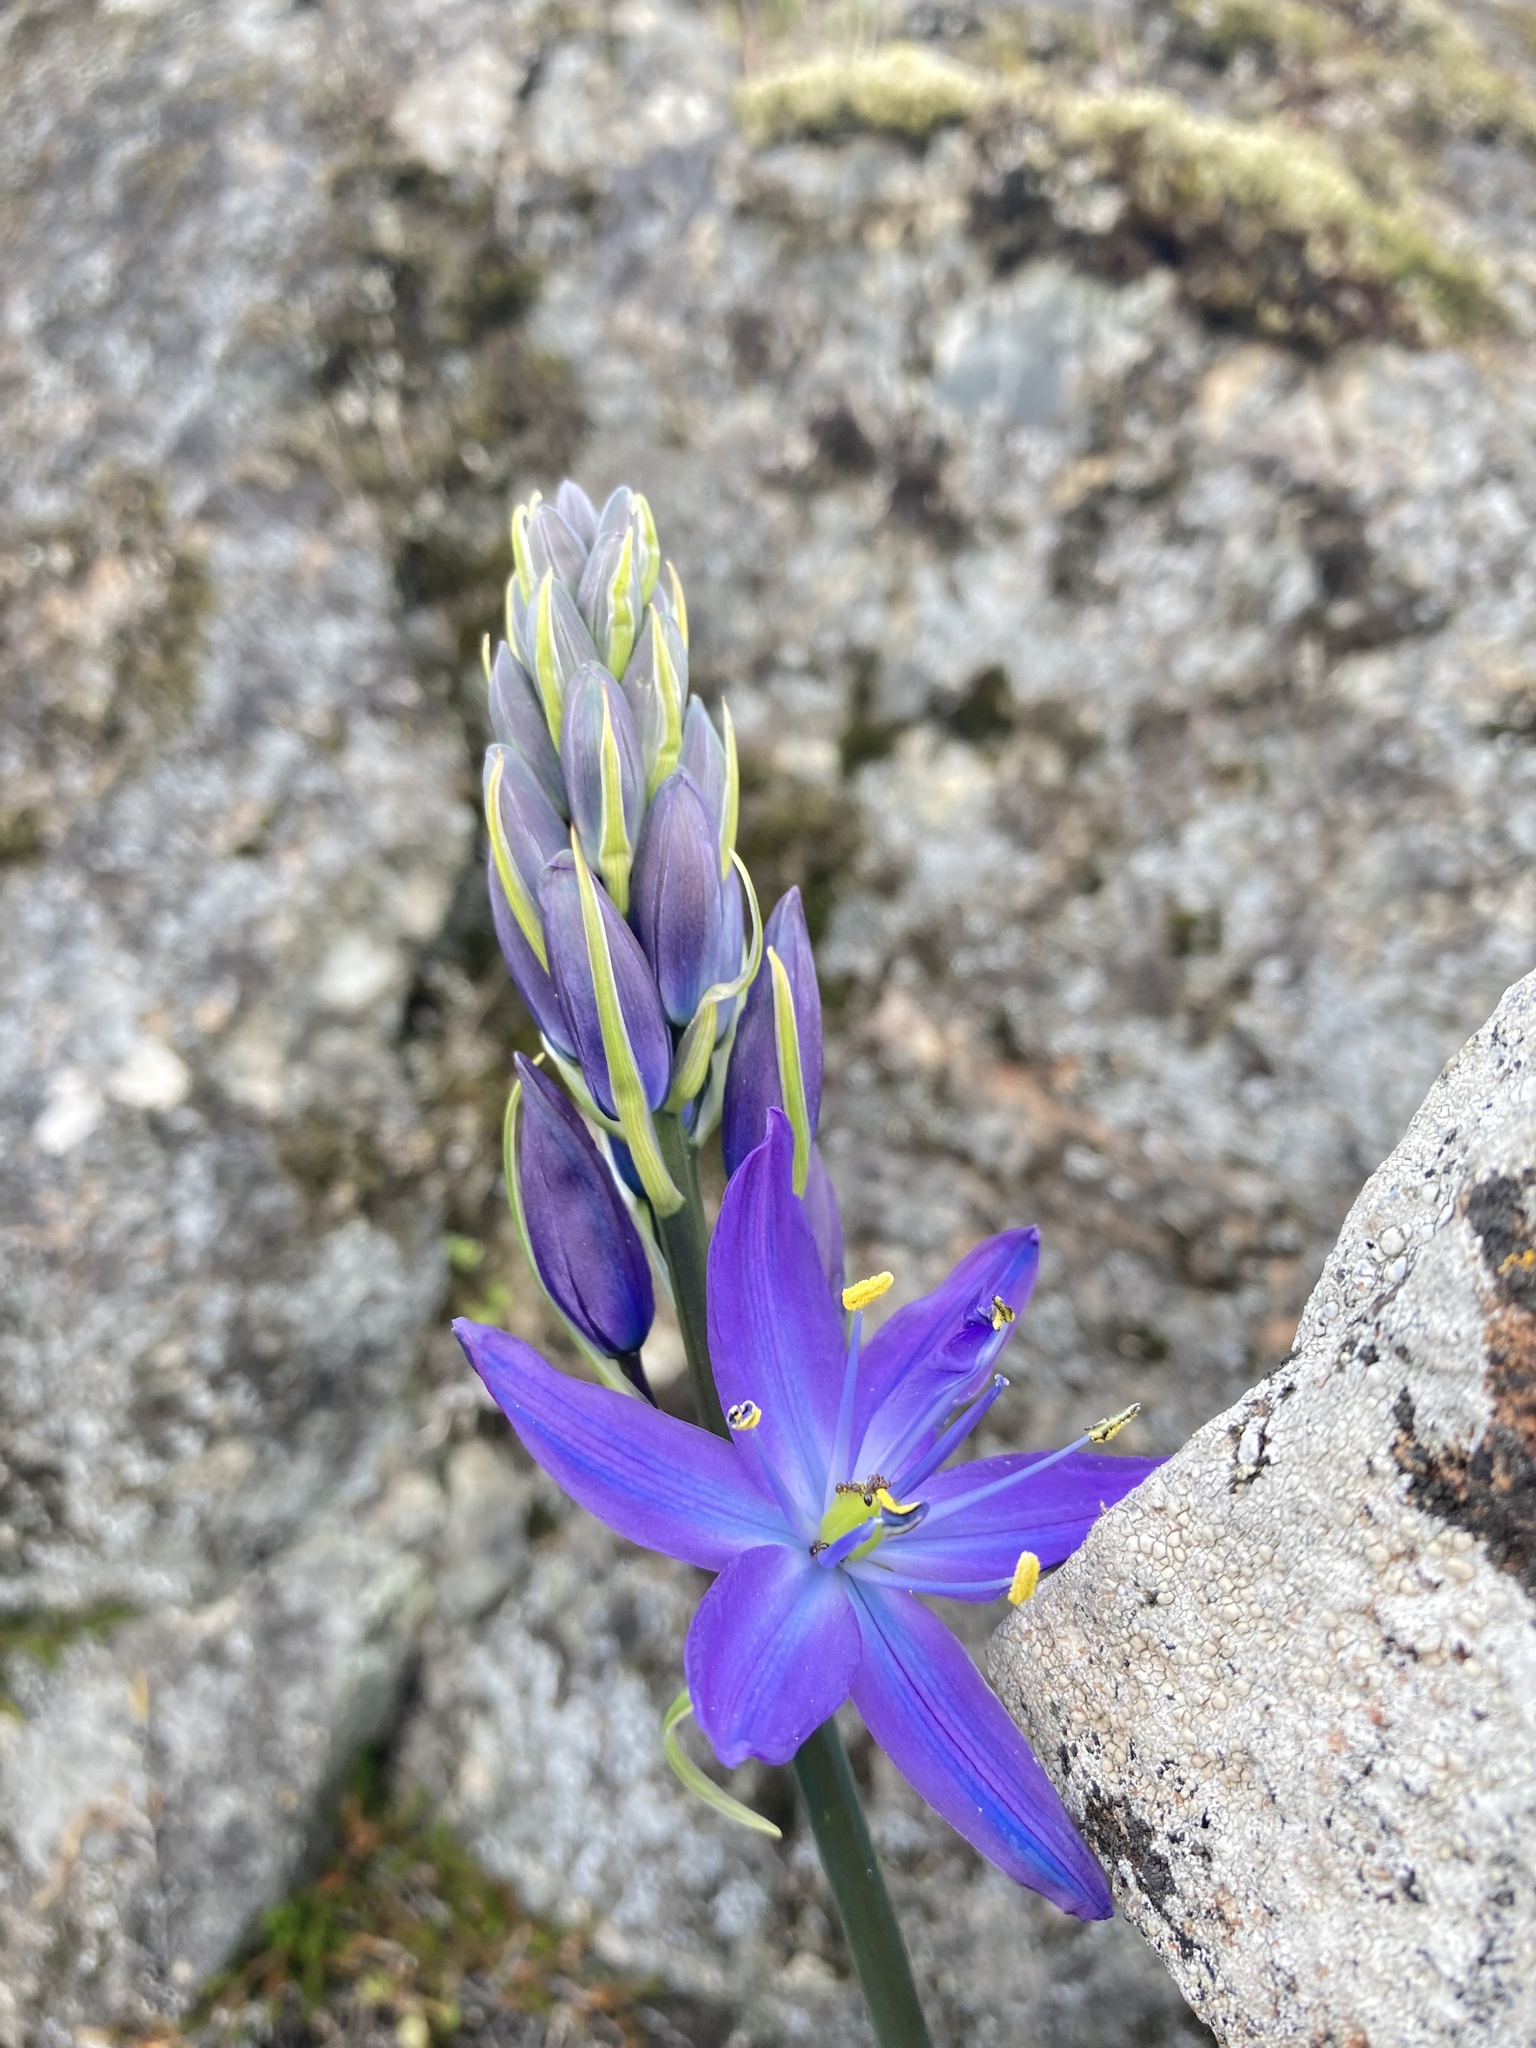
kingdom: Plantae
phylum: Tracheophyta
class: Liliopsida
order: Asparagales
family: Asparagaceae
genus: Camassia
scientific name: Camassia leichtlinii
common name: Leichtlin's camas
